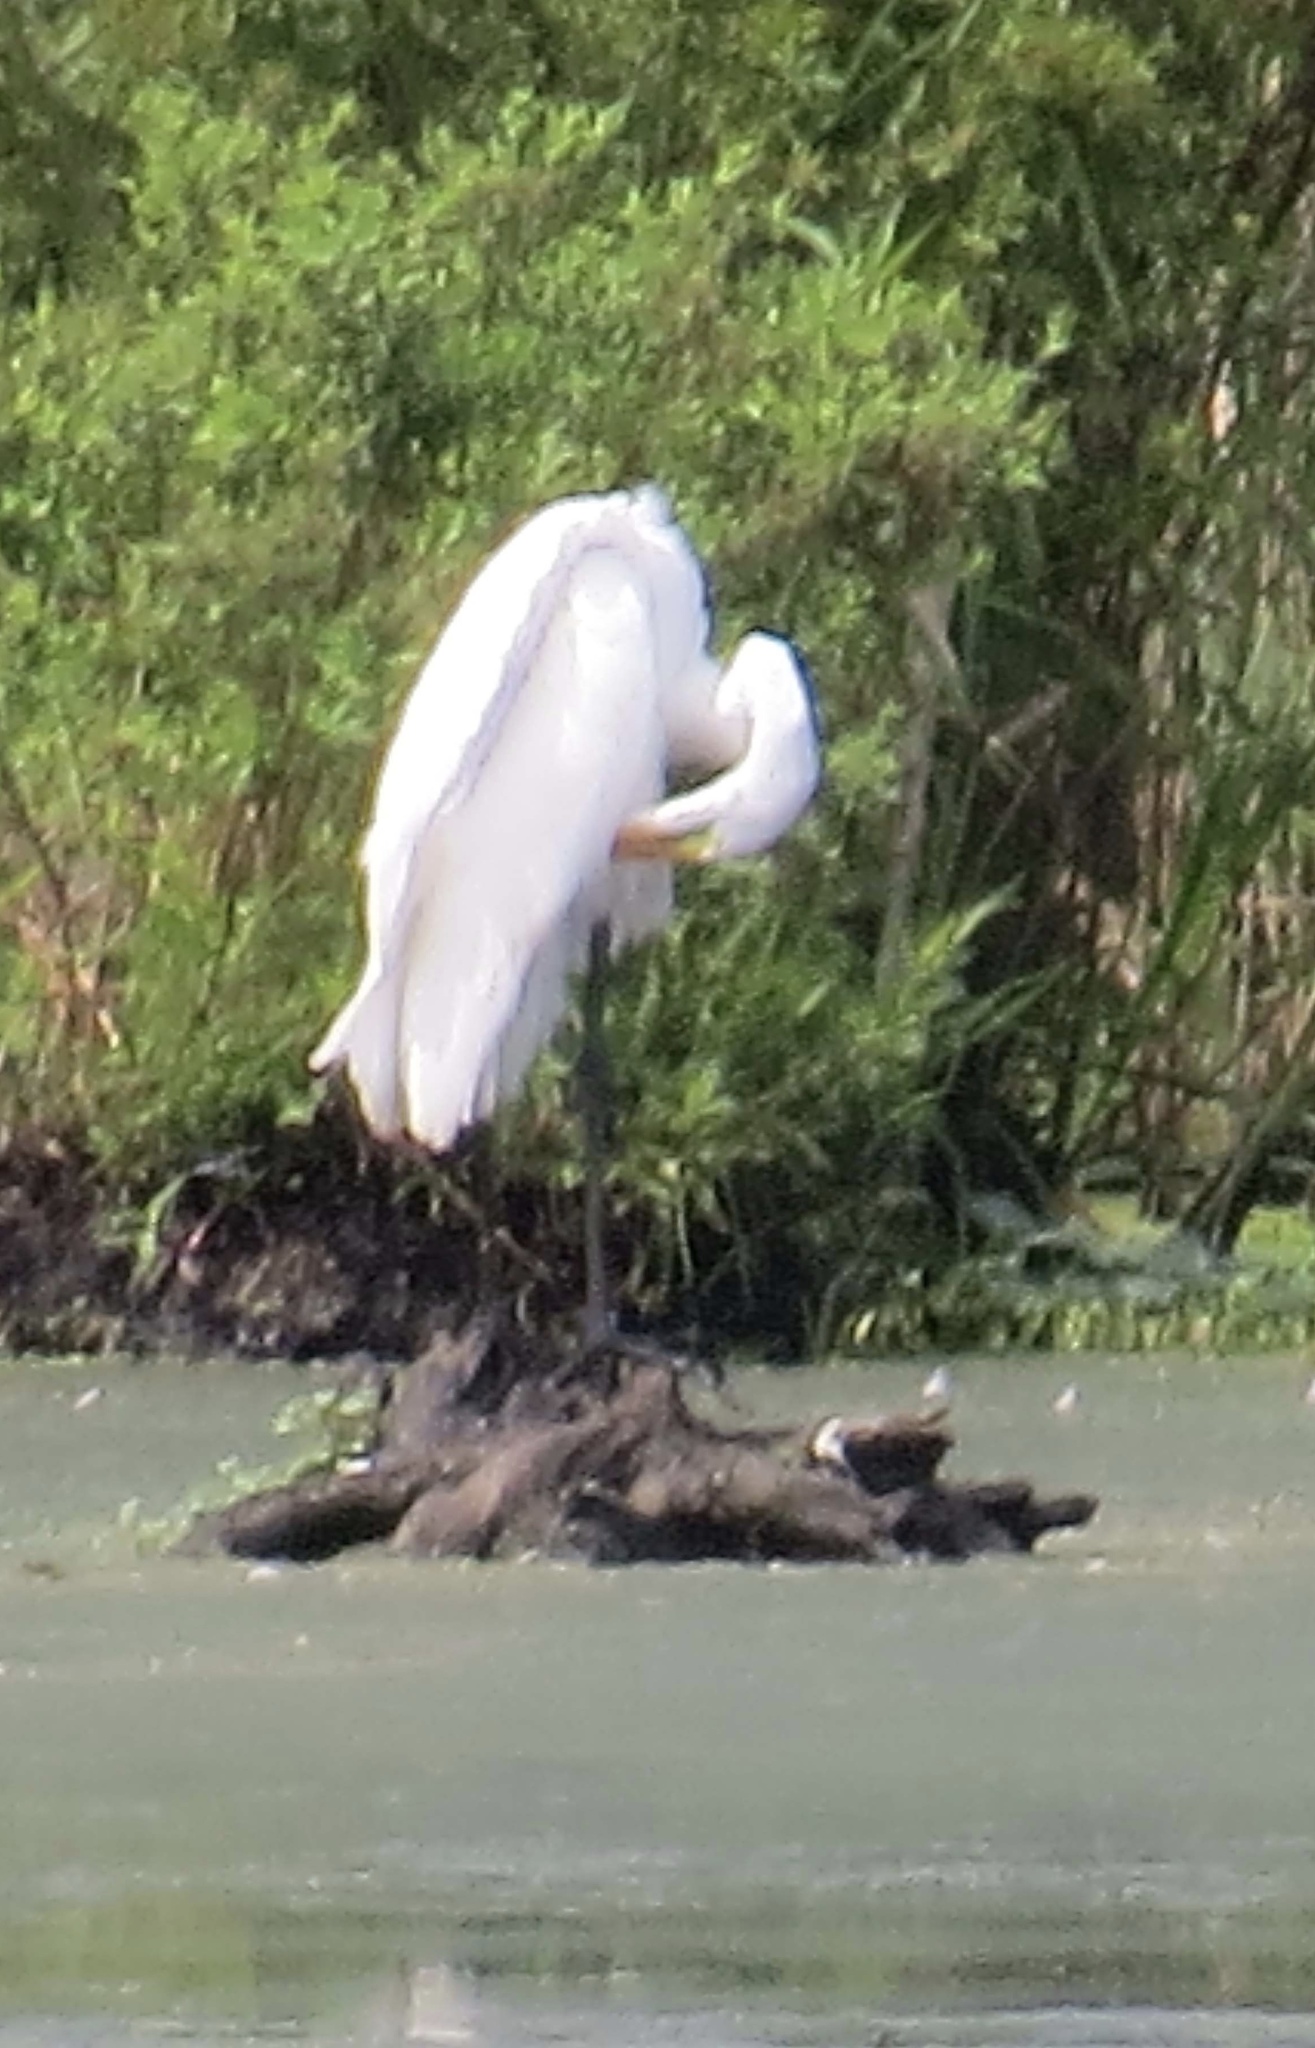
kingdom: Animalia
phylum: Chordata
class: Aves
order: Pelecaniformes
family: Ardeidae
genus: Ardea
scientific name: Ardea alba
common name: Great egret
